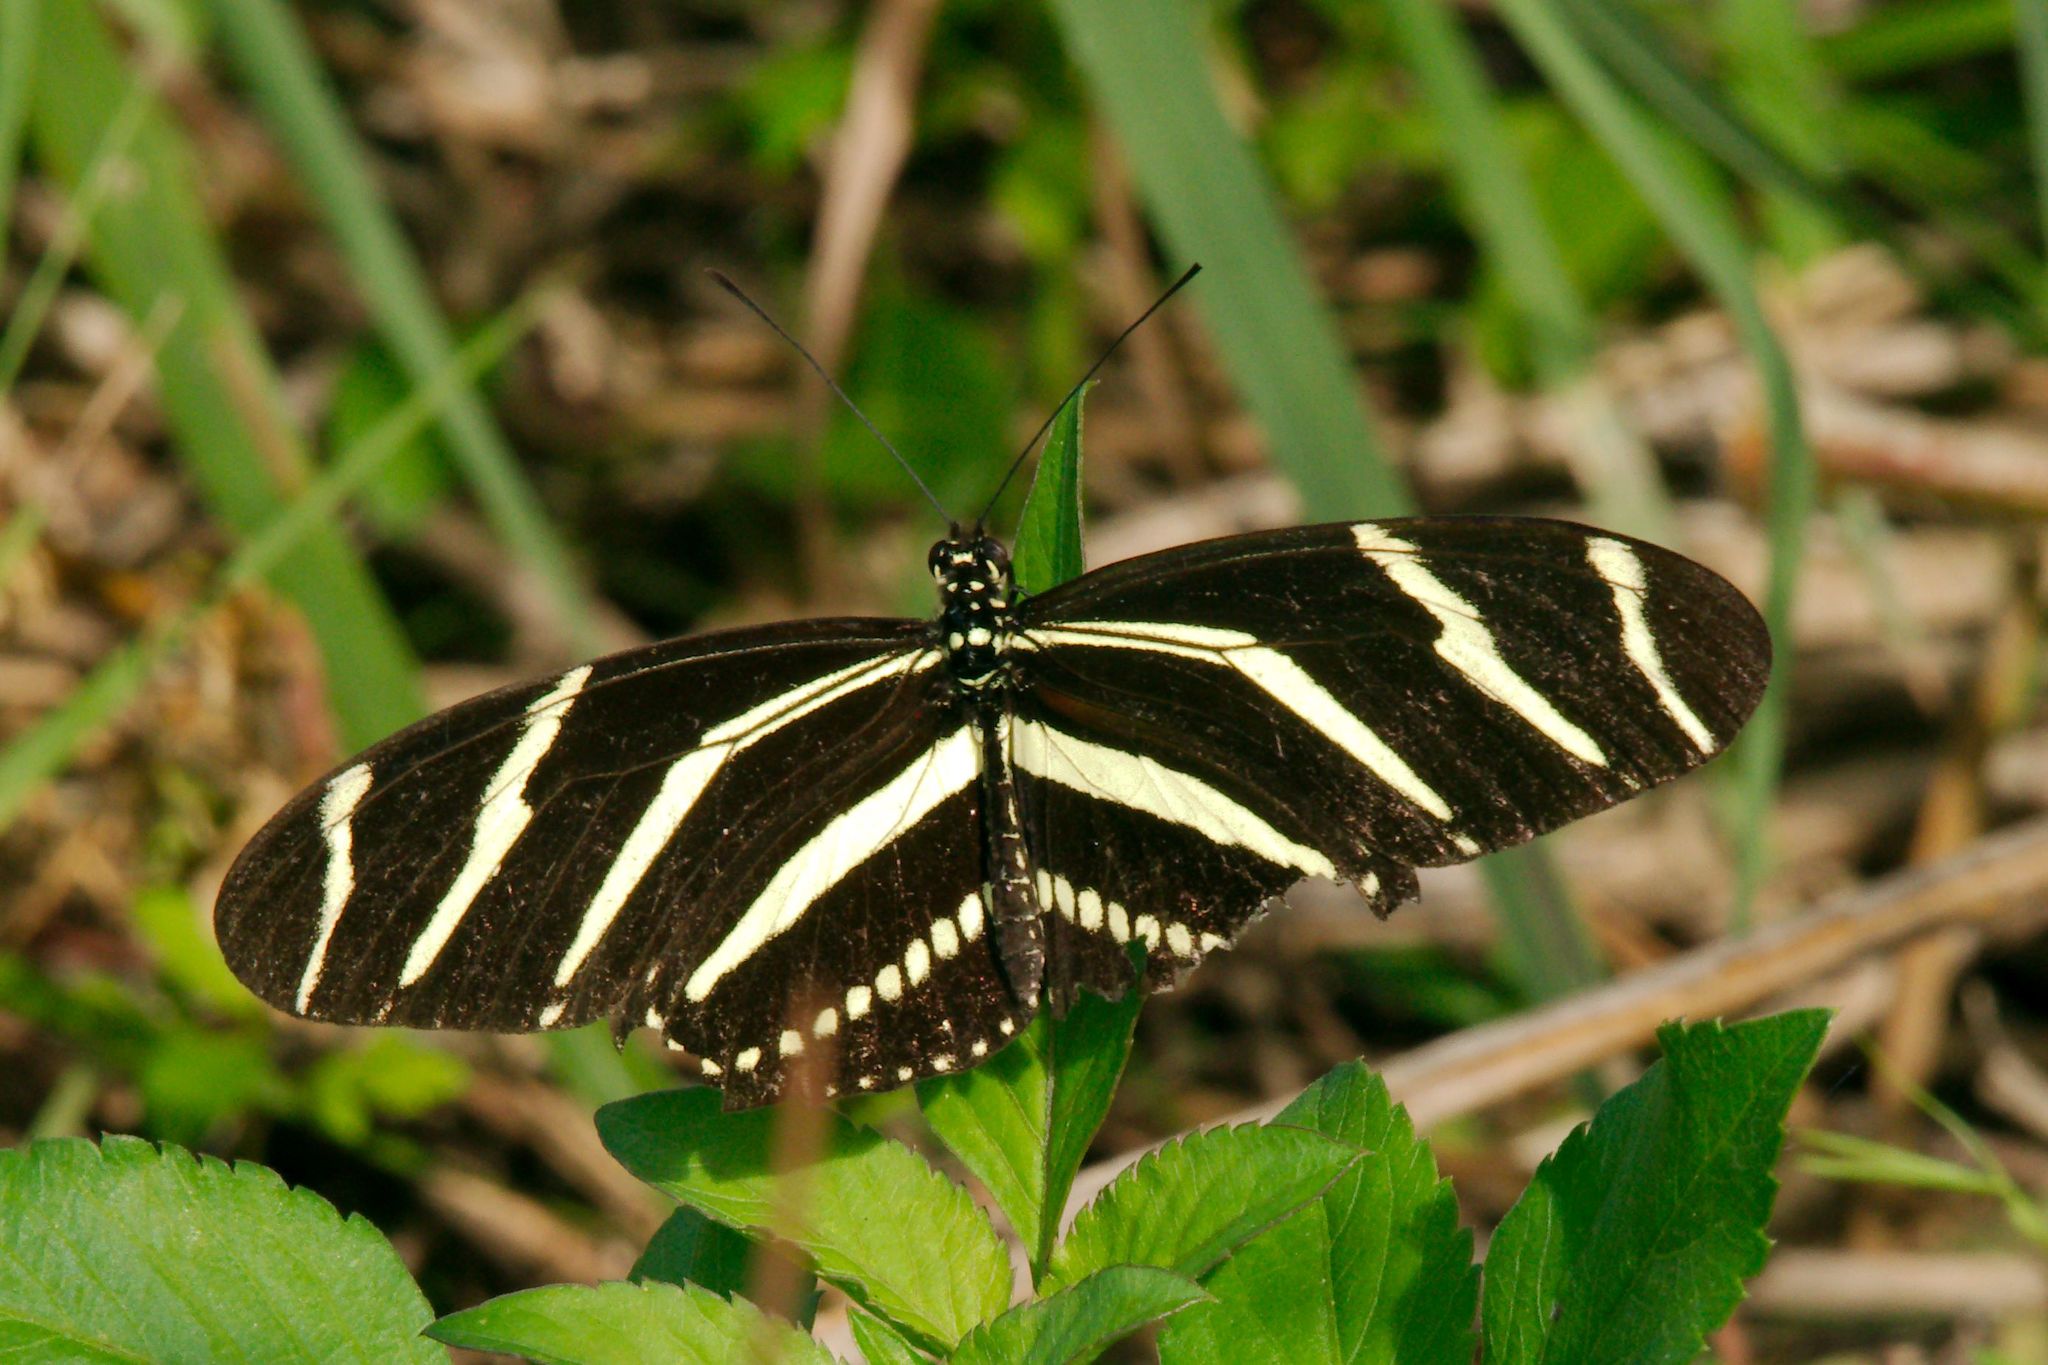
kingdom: Animalia
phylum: Arthropoda
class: Insecta
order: Lepidoptera
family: Nymphalidae
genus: Heliconius
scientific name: Heliconius charithonia
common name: Zebra long wing
